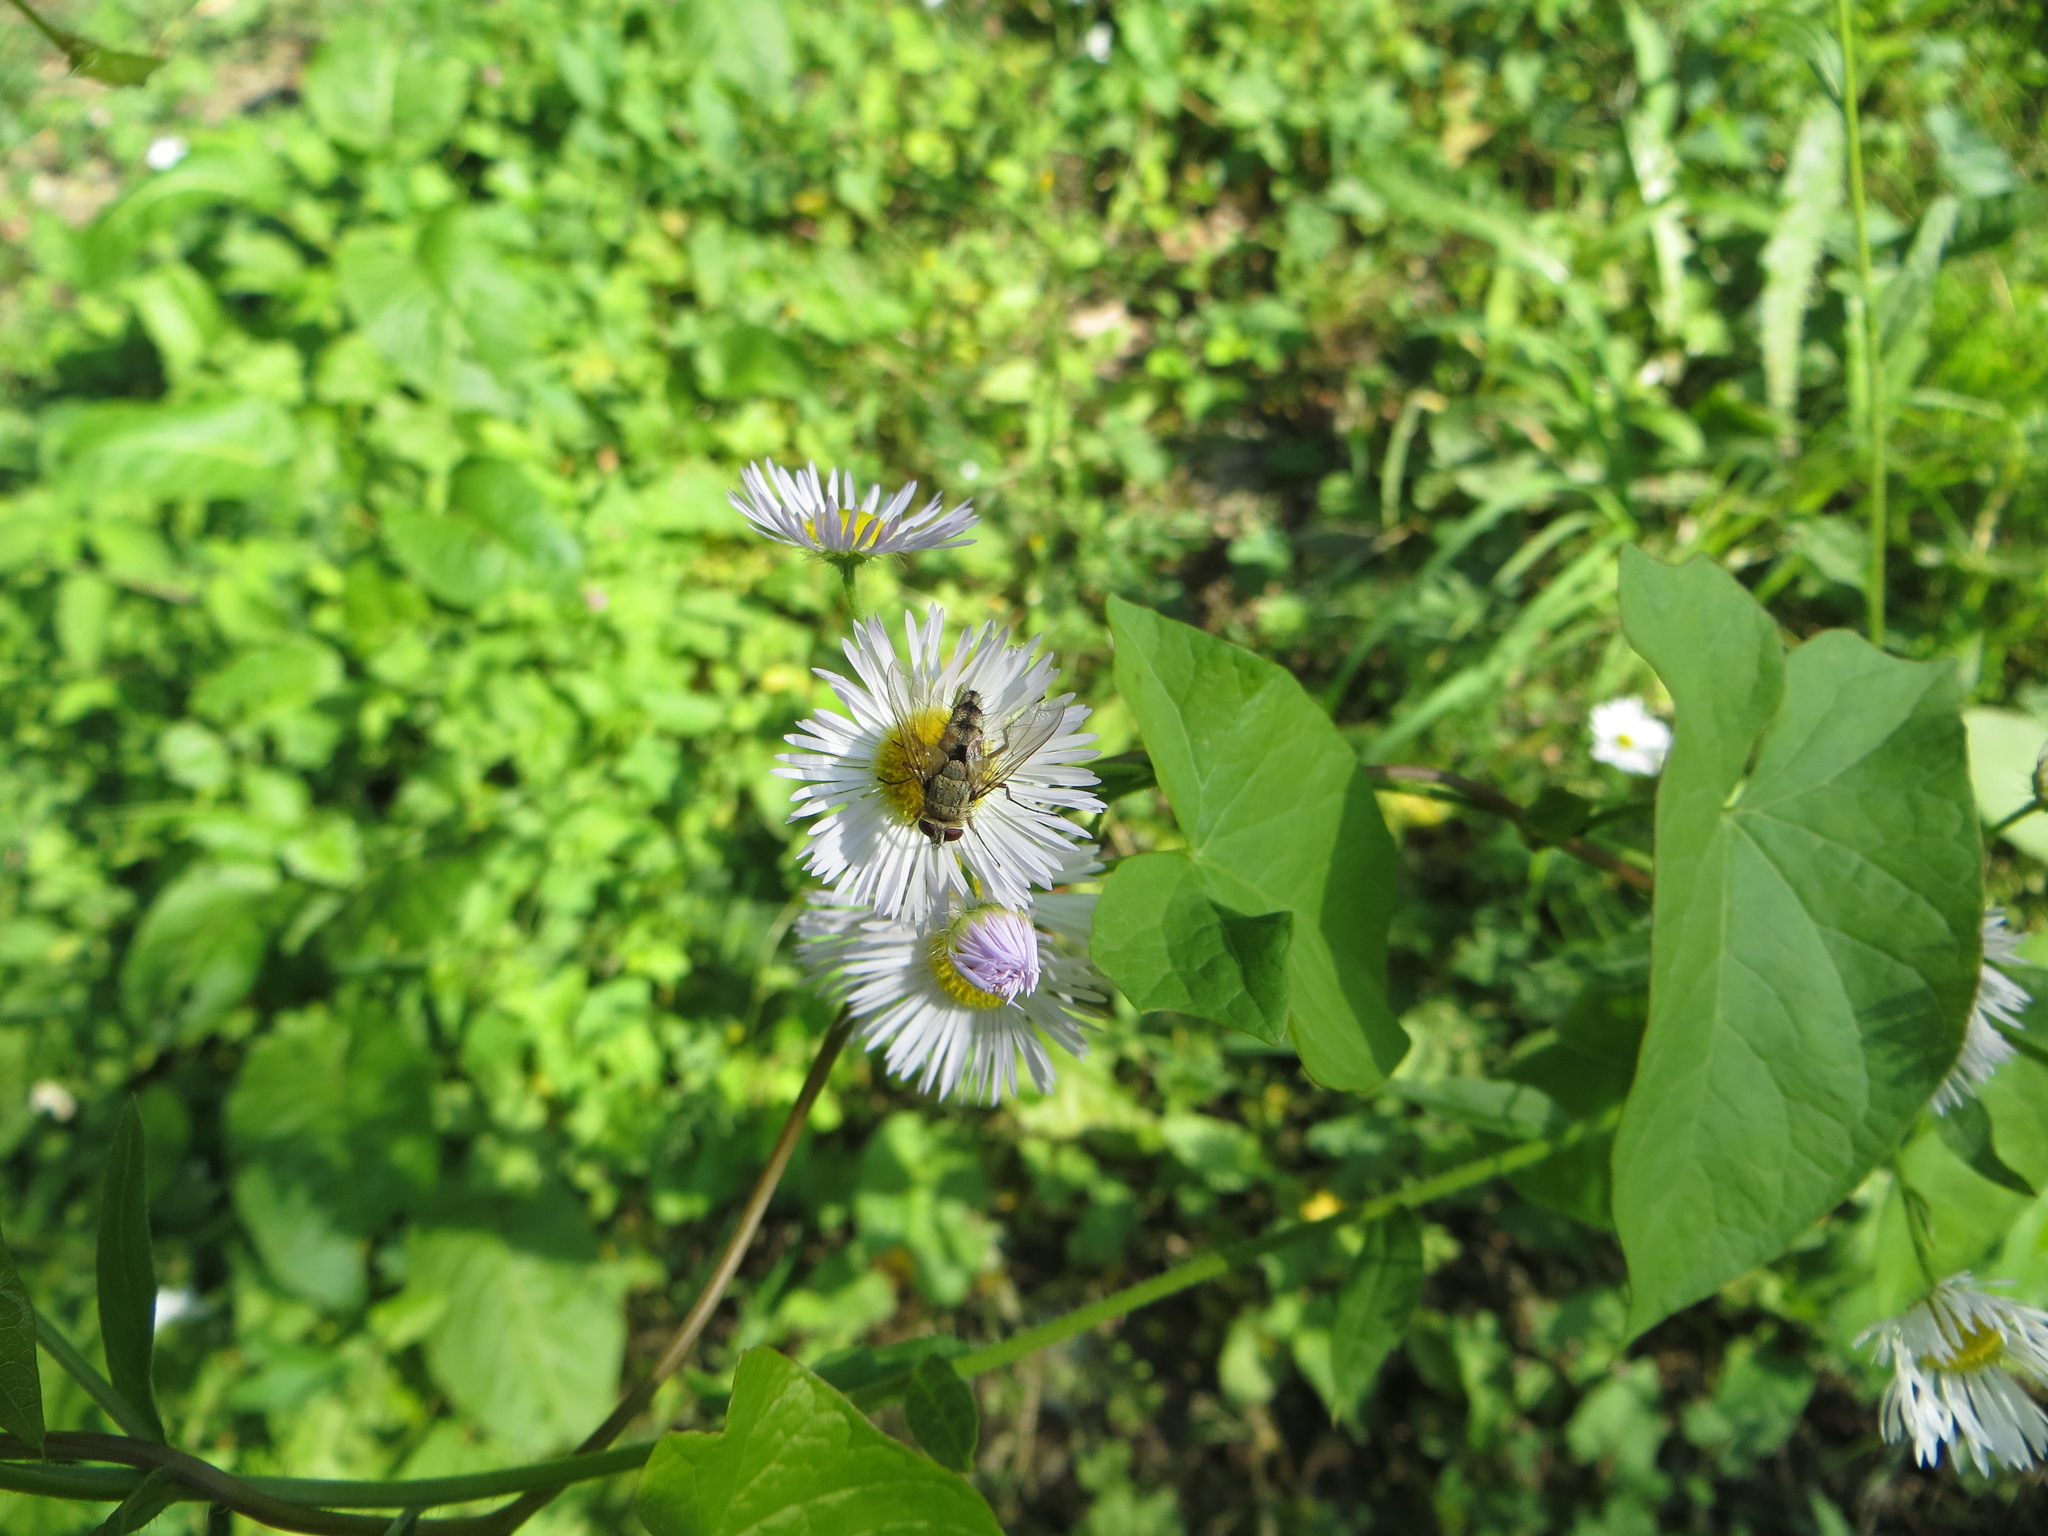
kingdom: Animalia
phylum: Arthropoda
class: Insecta
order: Diptera
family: Tachinidae
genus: Prosena
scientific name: Prosena siberita
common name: Parasitic fly
